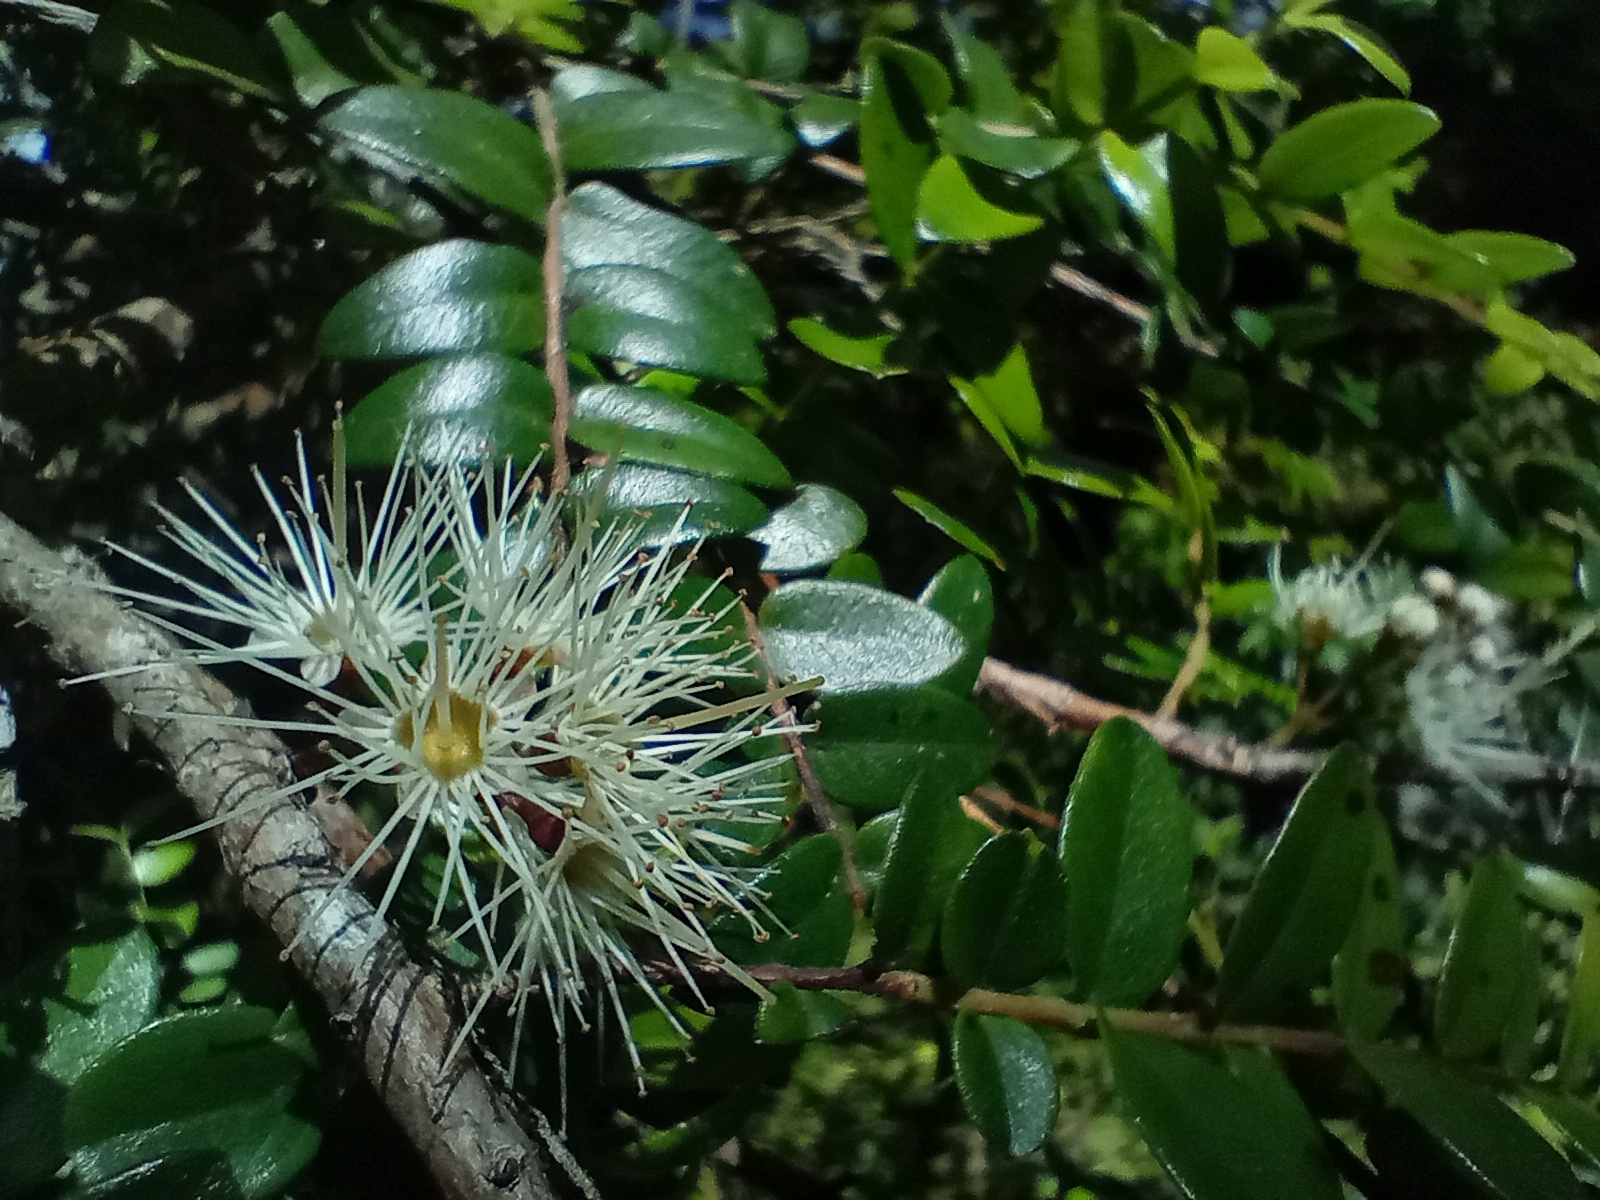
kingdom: Plantae
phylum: Tracheophyta
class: Magnoliopsida
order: Myrtales
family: Myrtaceae
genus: Metrosideros
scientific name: Metrosideros diffusa
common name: Small ratavine
